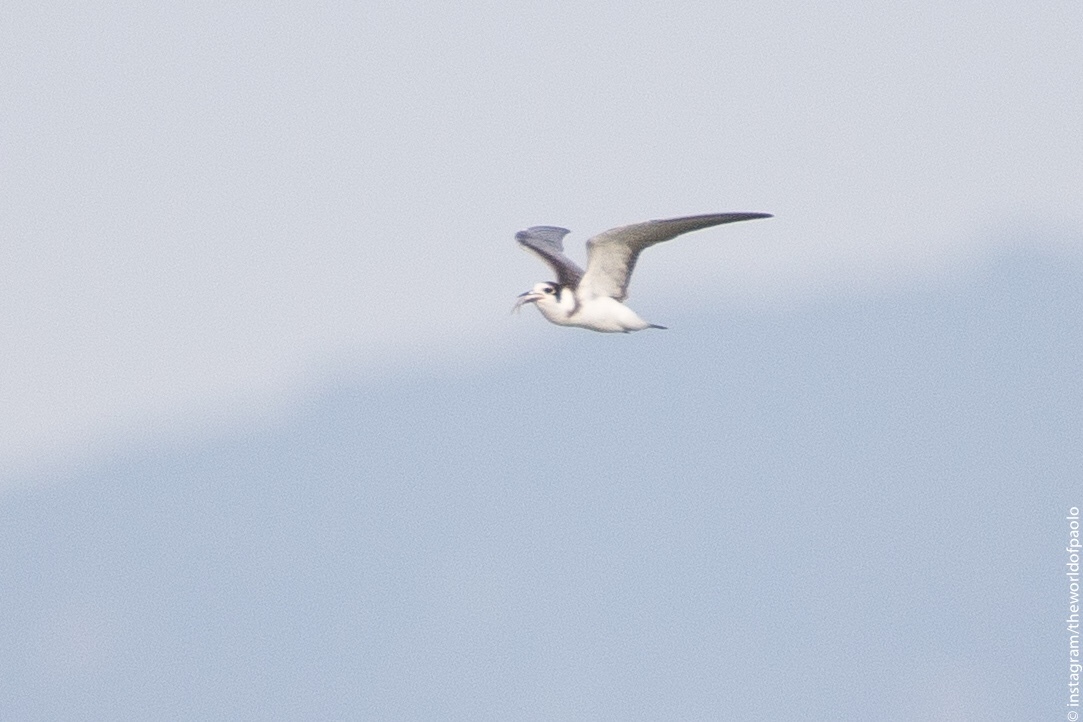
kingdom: Animalia
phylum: Chordata
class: Aves
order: Charadriiformes
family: Laridae
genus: Chlidonias
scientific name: Chlidonias niger
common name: Black tern
